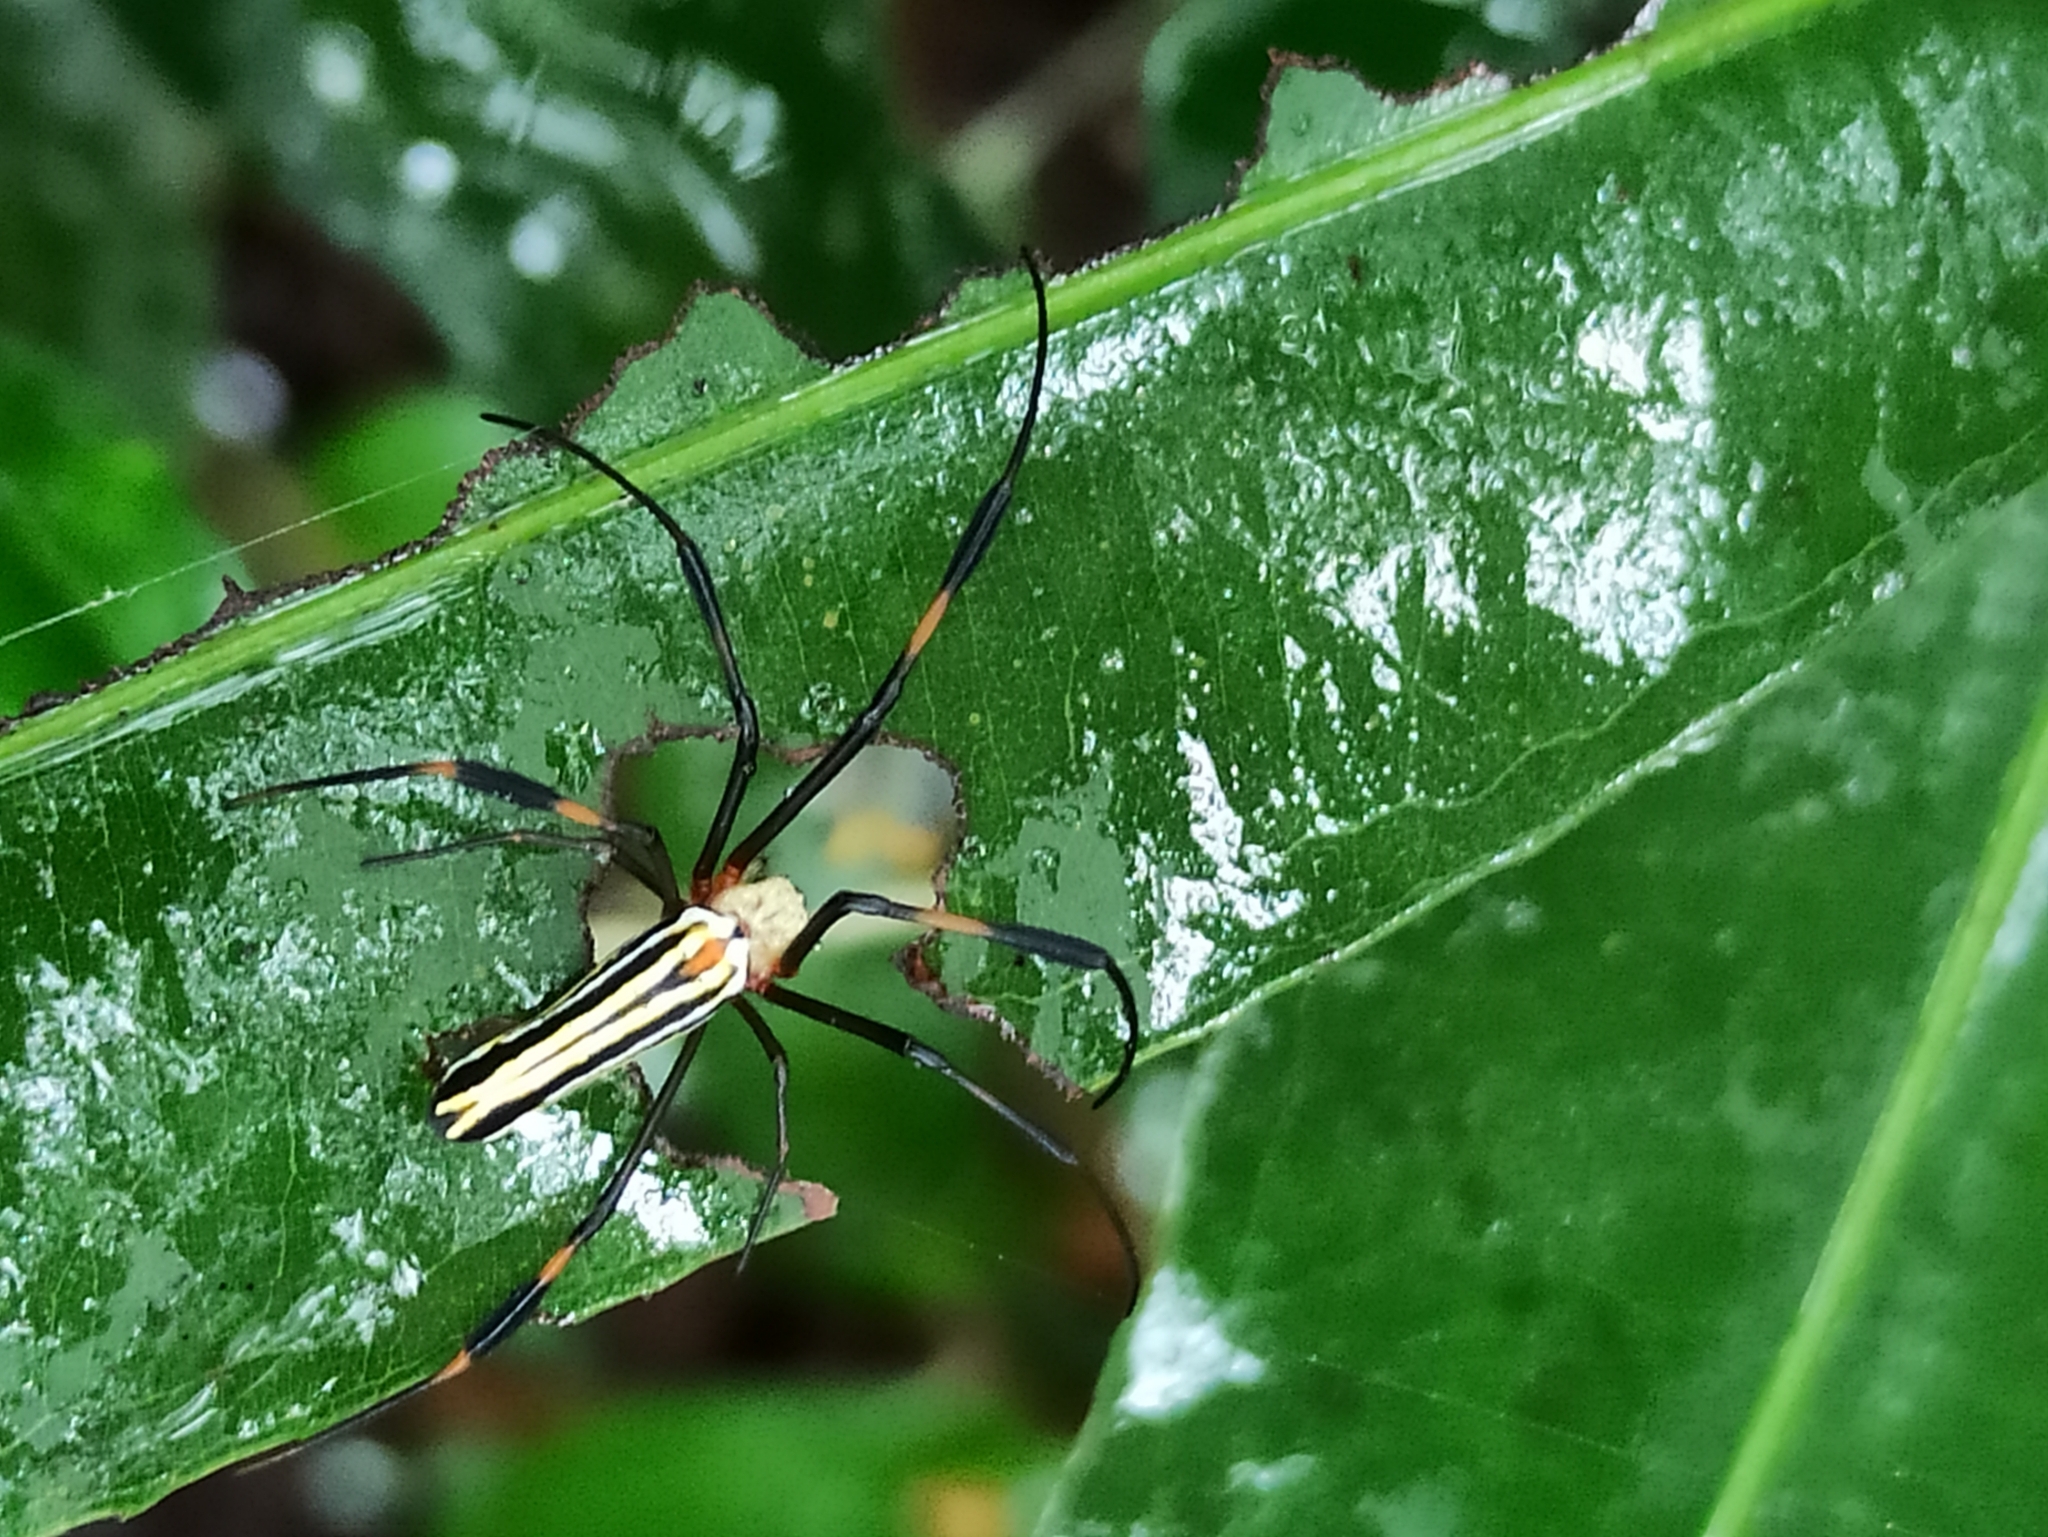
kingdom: Animalia
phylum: Arthropoda
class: Arachnida
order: Araneae
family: Araneidae
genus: Nephila
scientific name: Nephila pilipes
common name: Giant golden orb weaver
